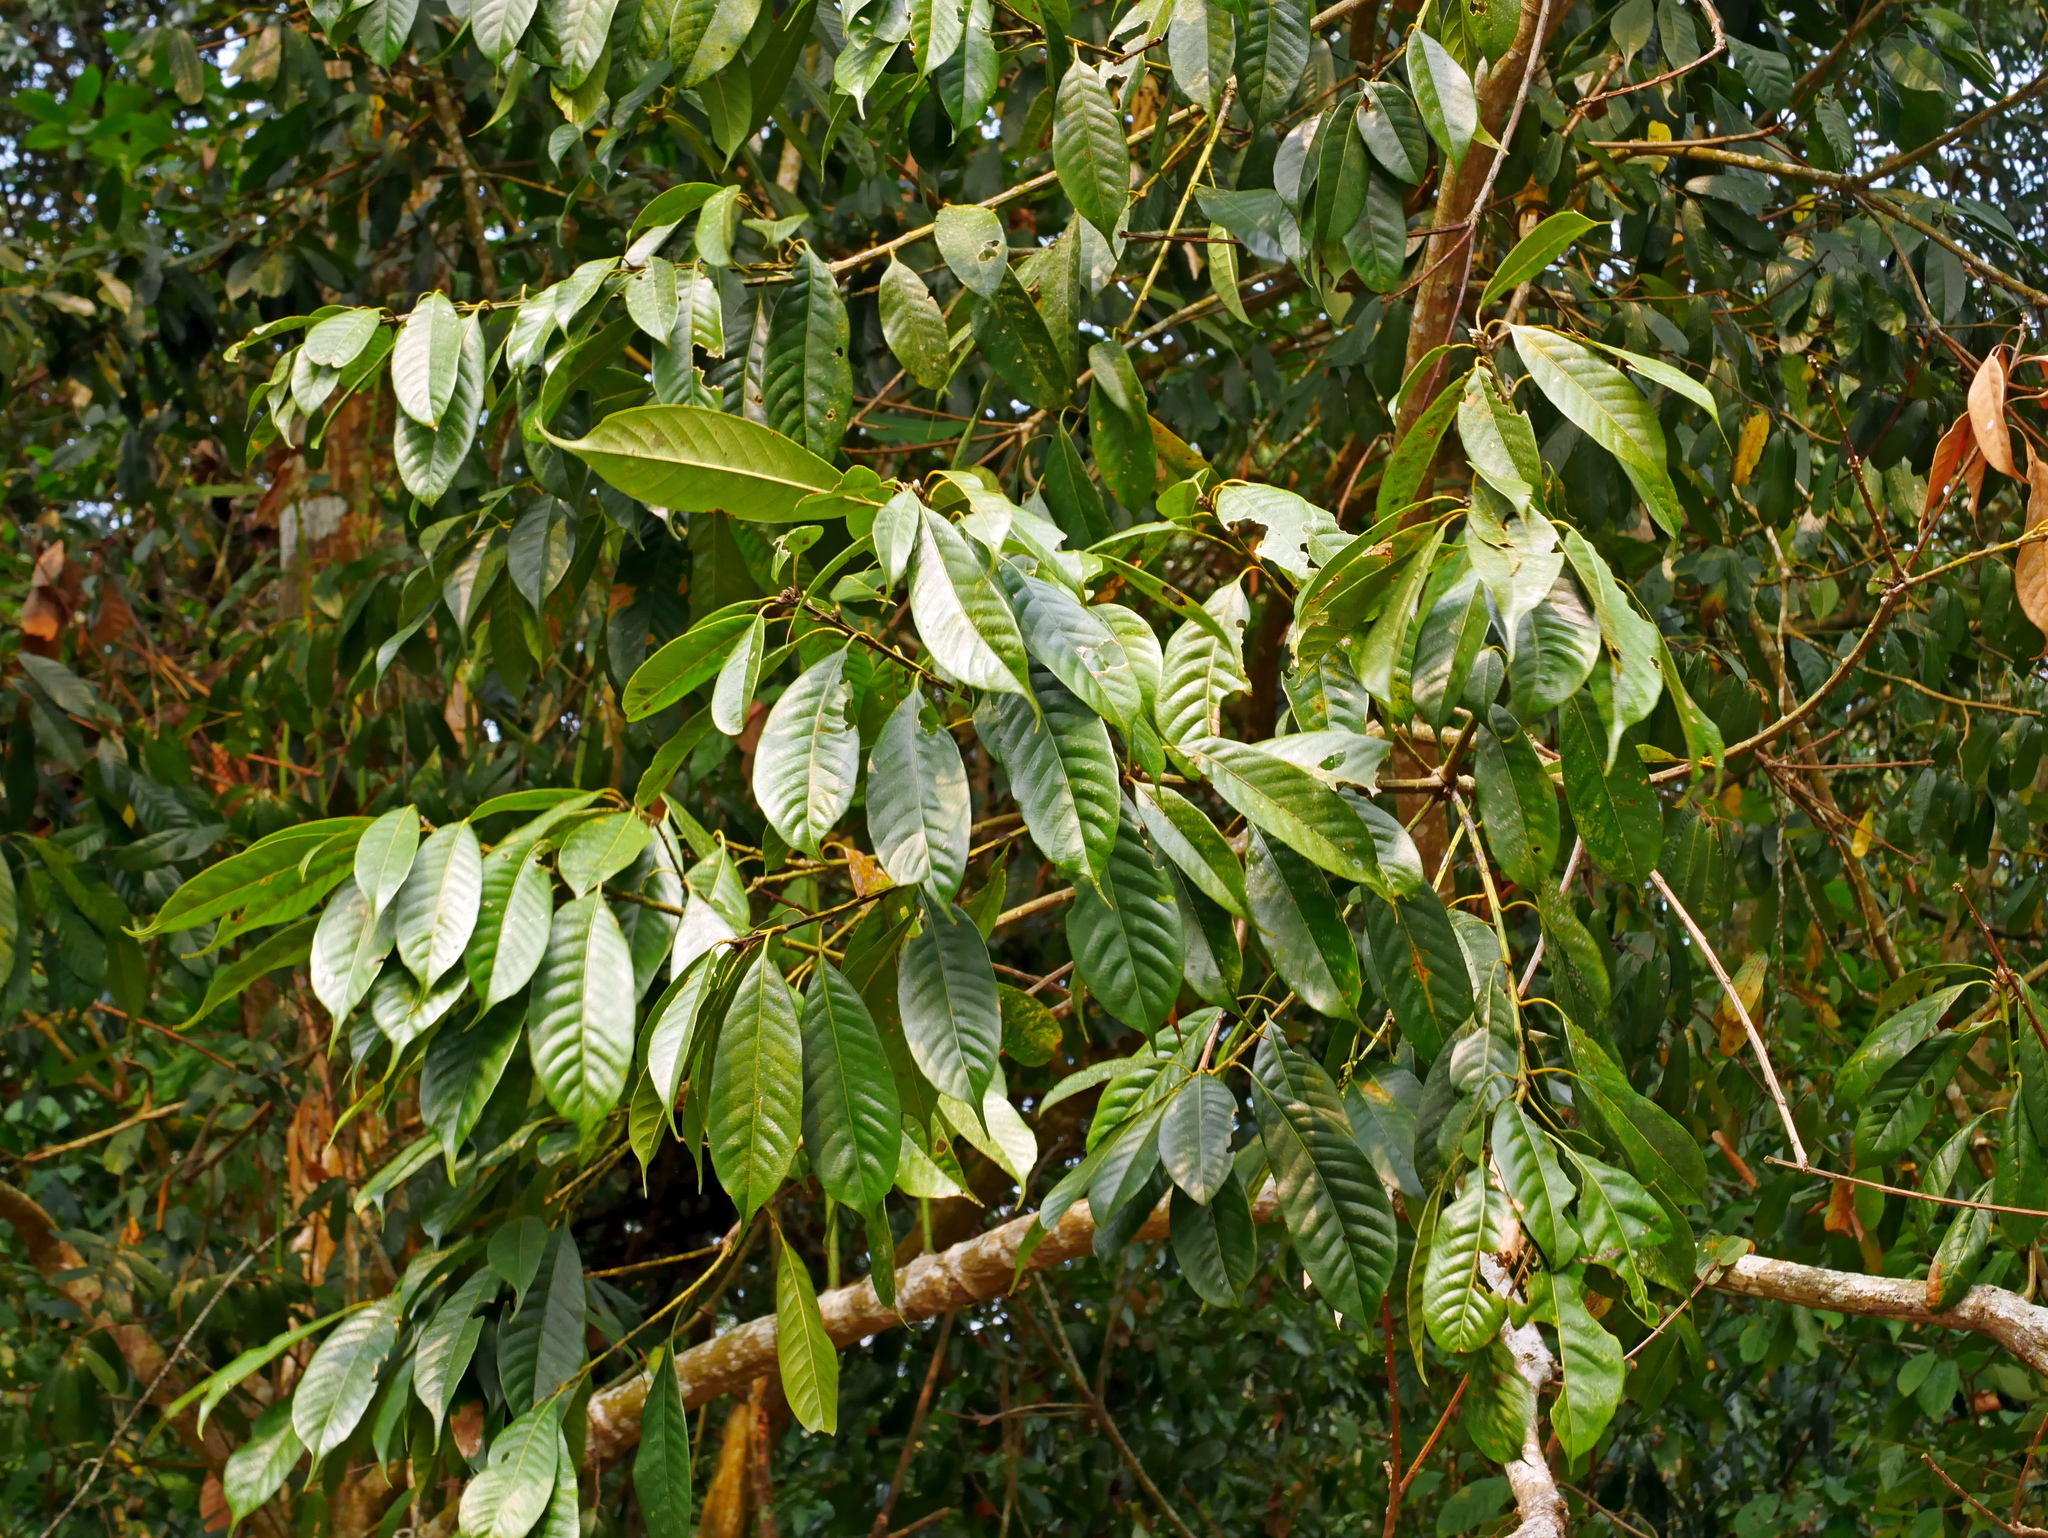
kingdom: Plantae
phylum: Tracheophyta
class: Magnoliopsida
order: Fagales
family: Fagaceae
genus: Lithocarpus
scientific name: Lithocarpus brevicaudatus
